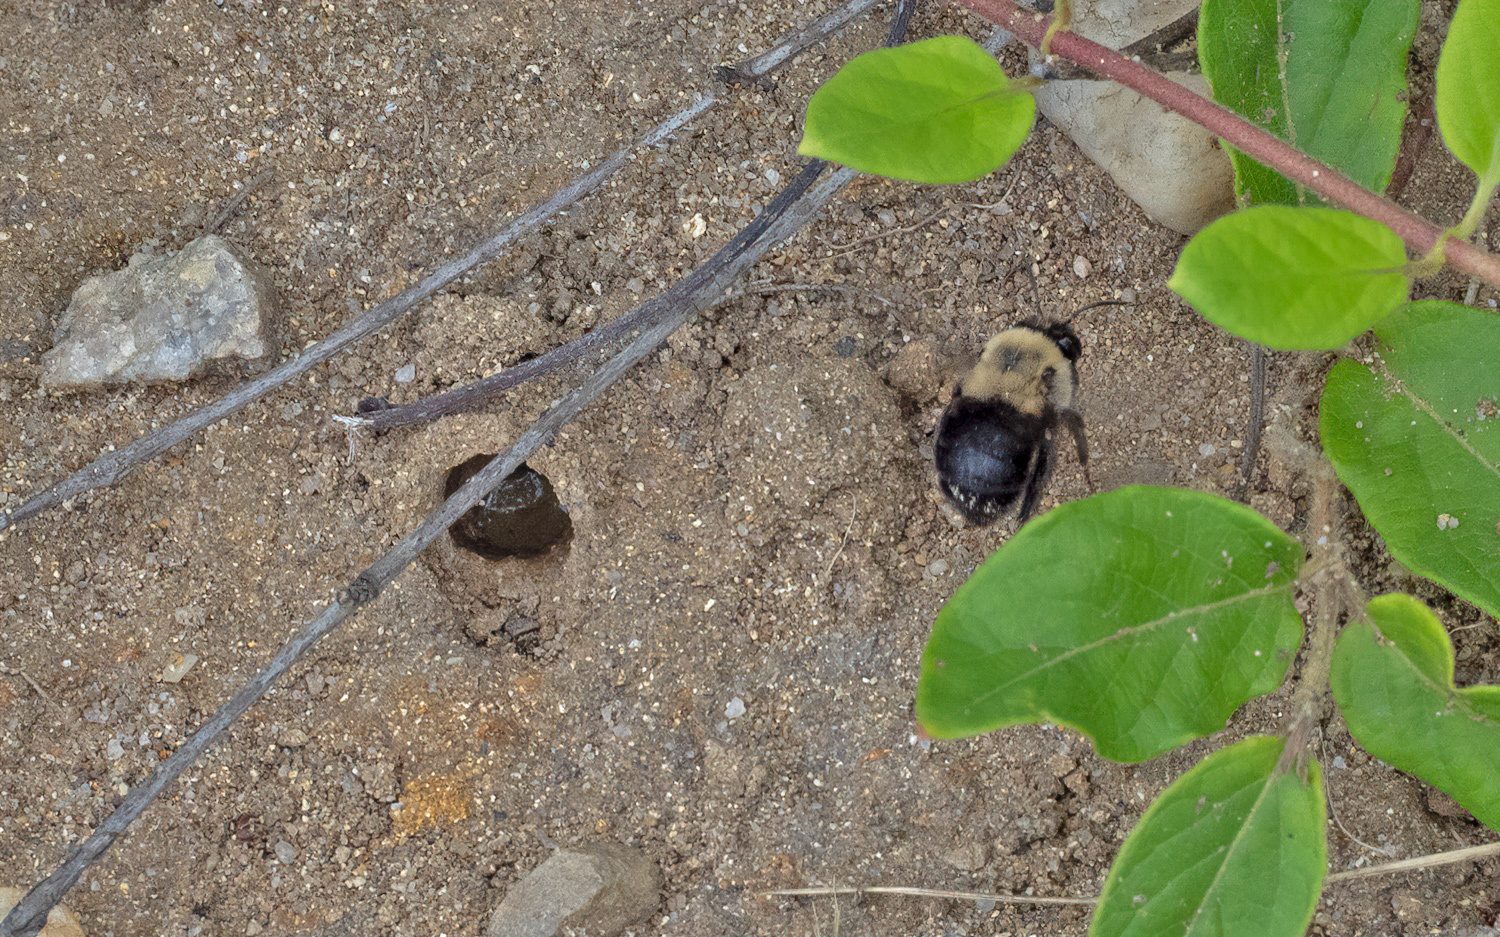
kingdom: Animalia
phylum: Arthropoda
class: Insecta
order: Hymenoptera
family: Apidae
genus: Anthophora
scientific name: Anthophora abrupta
